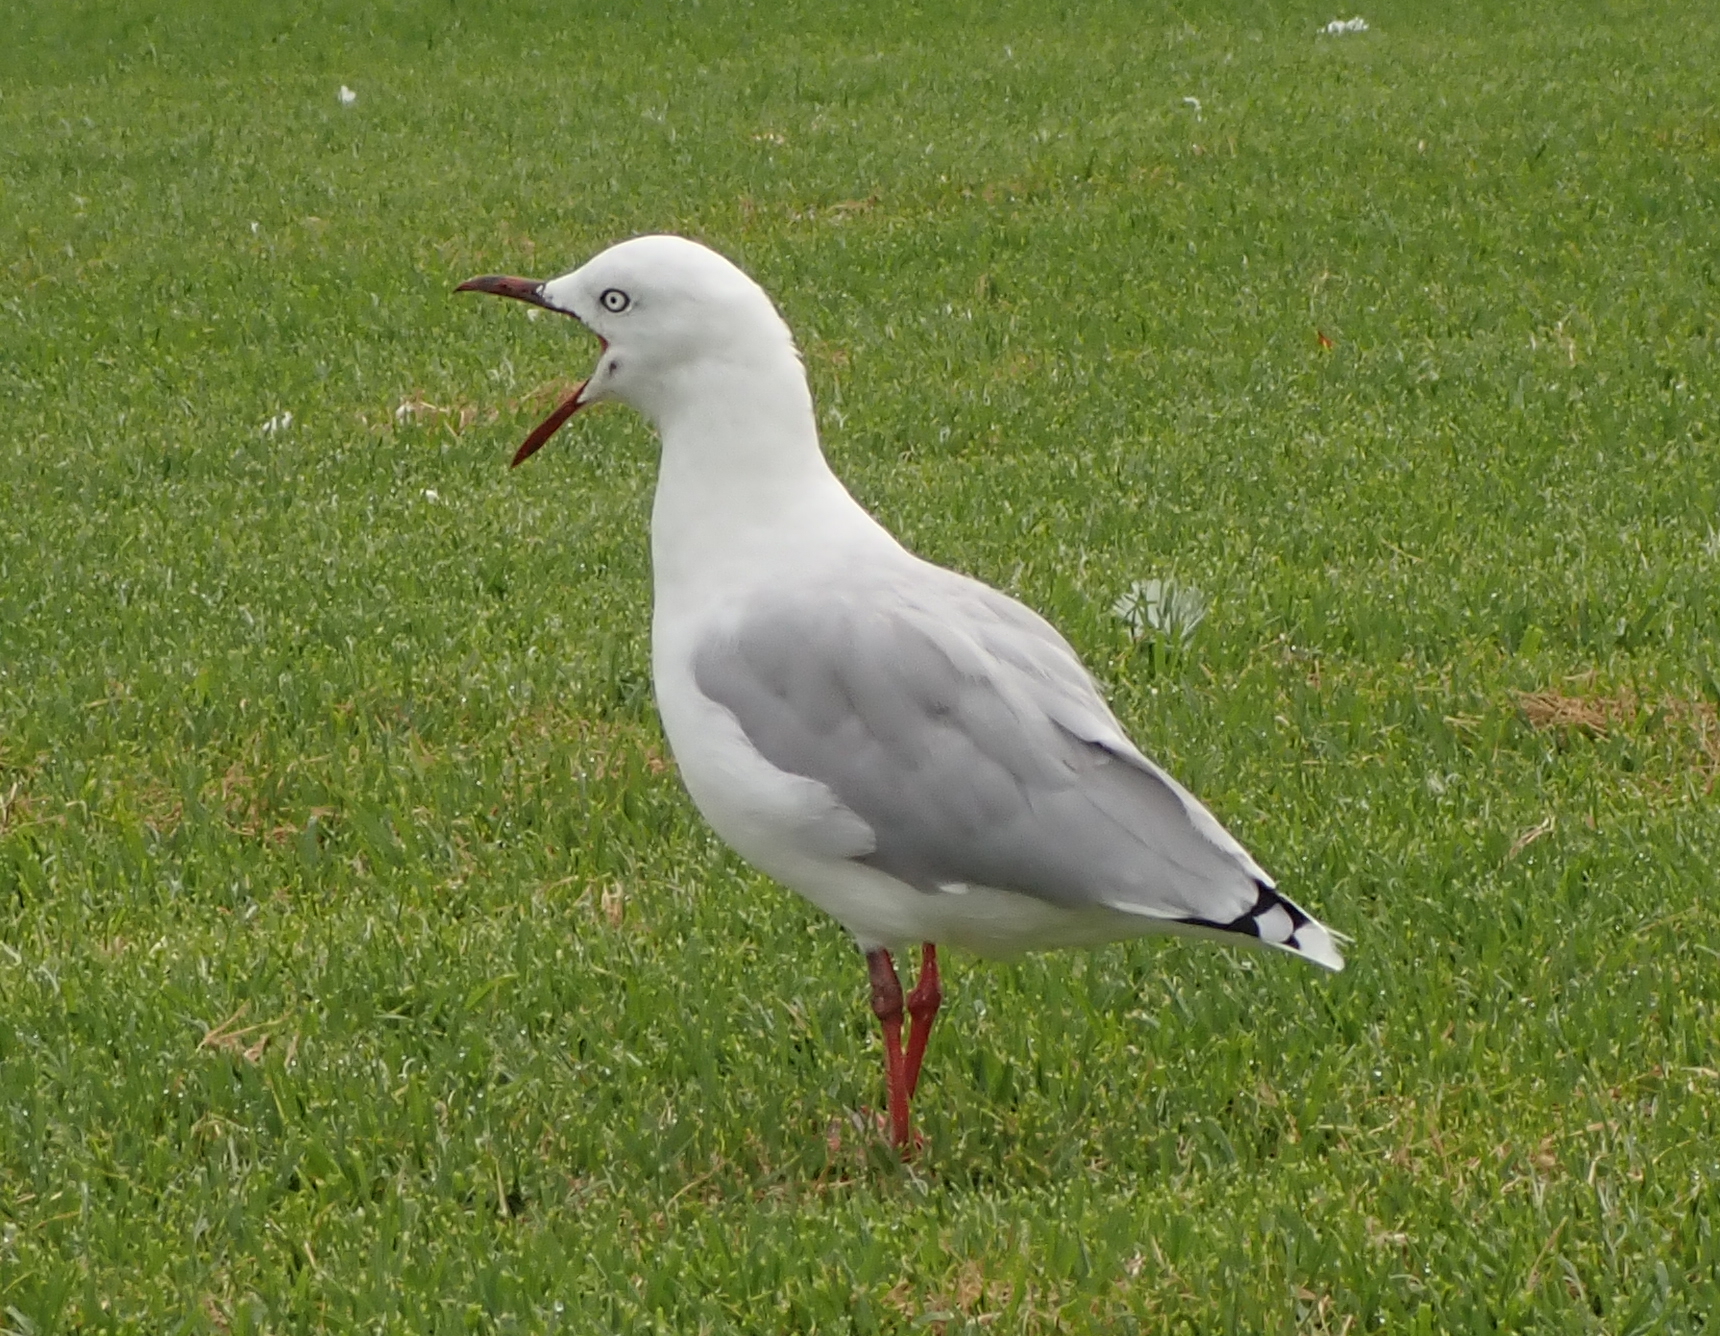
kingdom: Animalia
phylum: Chordata
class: Aves
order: Charadriiformes
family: Laridae
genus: Chroicocephalus
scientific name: Chroicocephalus novaehollandiae
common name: Silver gull
